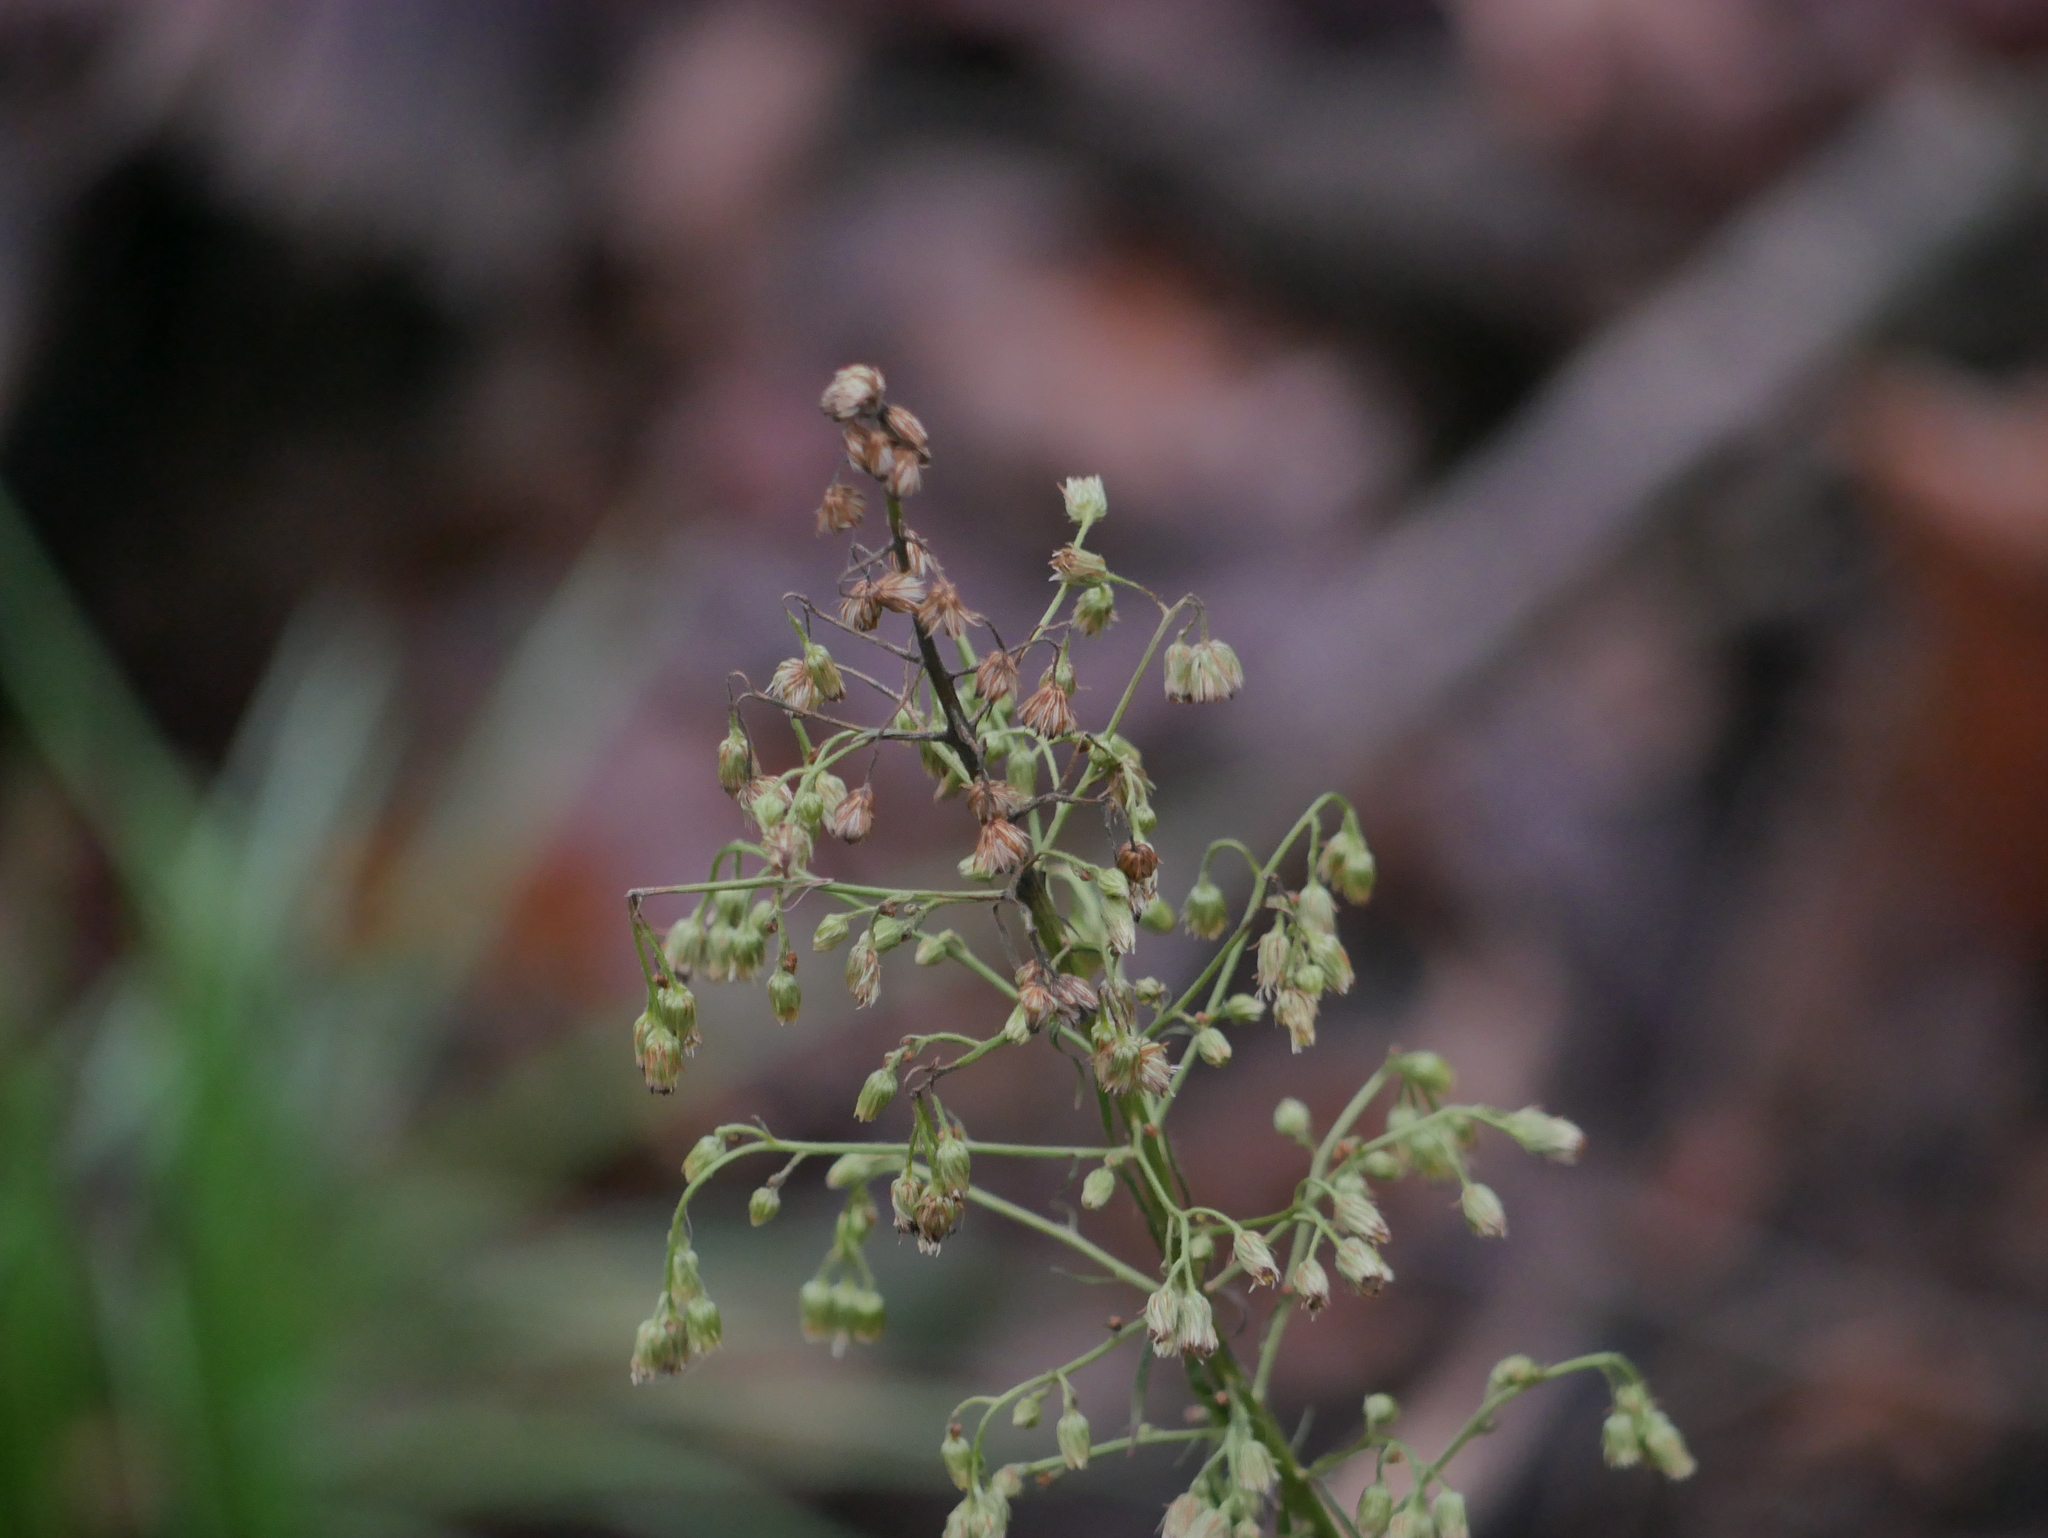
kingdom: Plantae
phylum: Tracheophyta
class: Magnoliopsida
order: Asterales
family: Asteraceae
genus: Erigeron
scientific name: Erigeron canadensis
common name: Canadian fleabane
